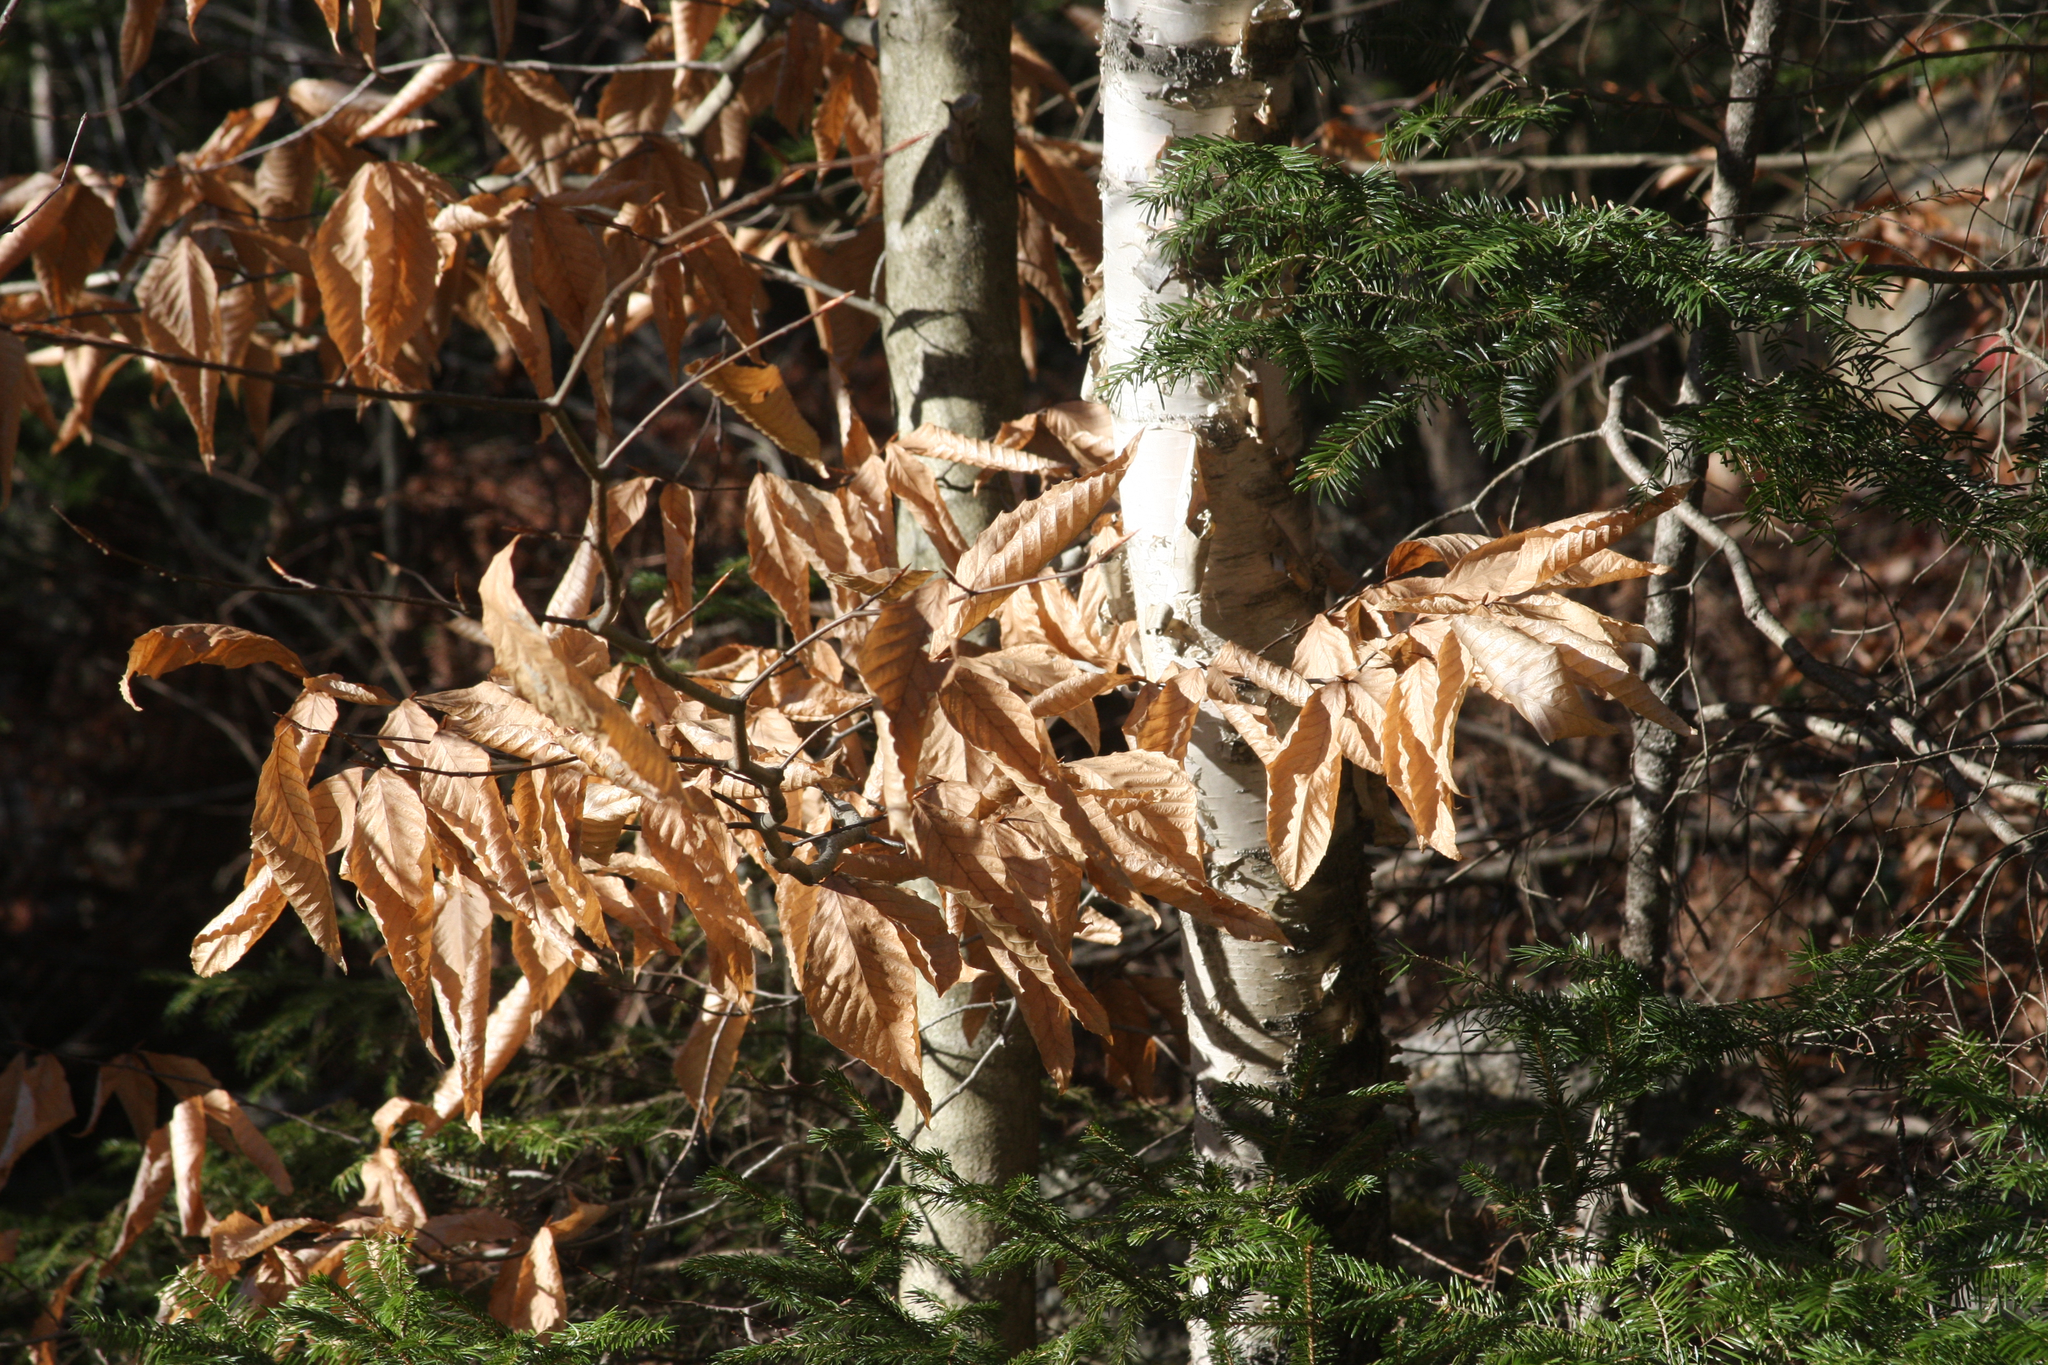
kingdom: Plantae
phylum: Tracheophyta
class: Magnoliopsida
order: Fagales
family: Fagaceae
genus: Fagus
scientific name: Fagus grandifolia
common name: American beech
